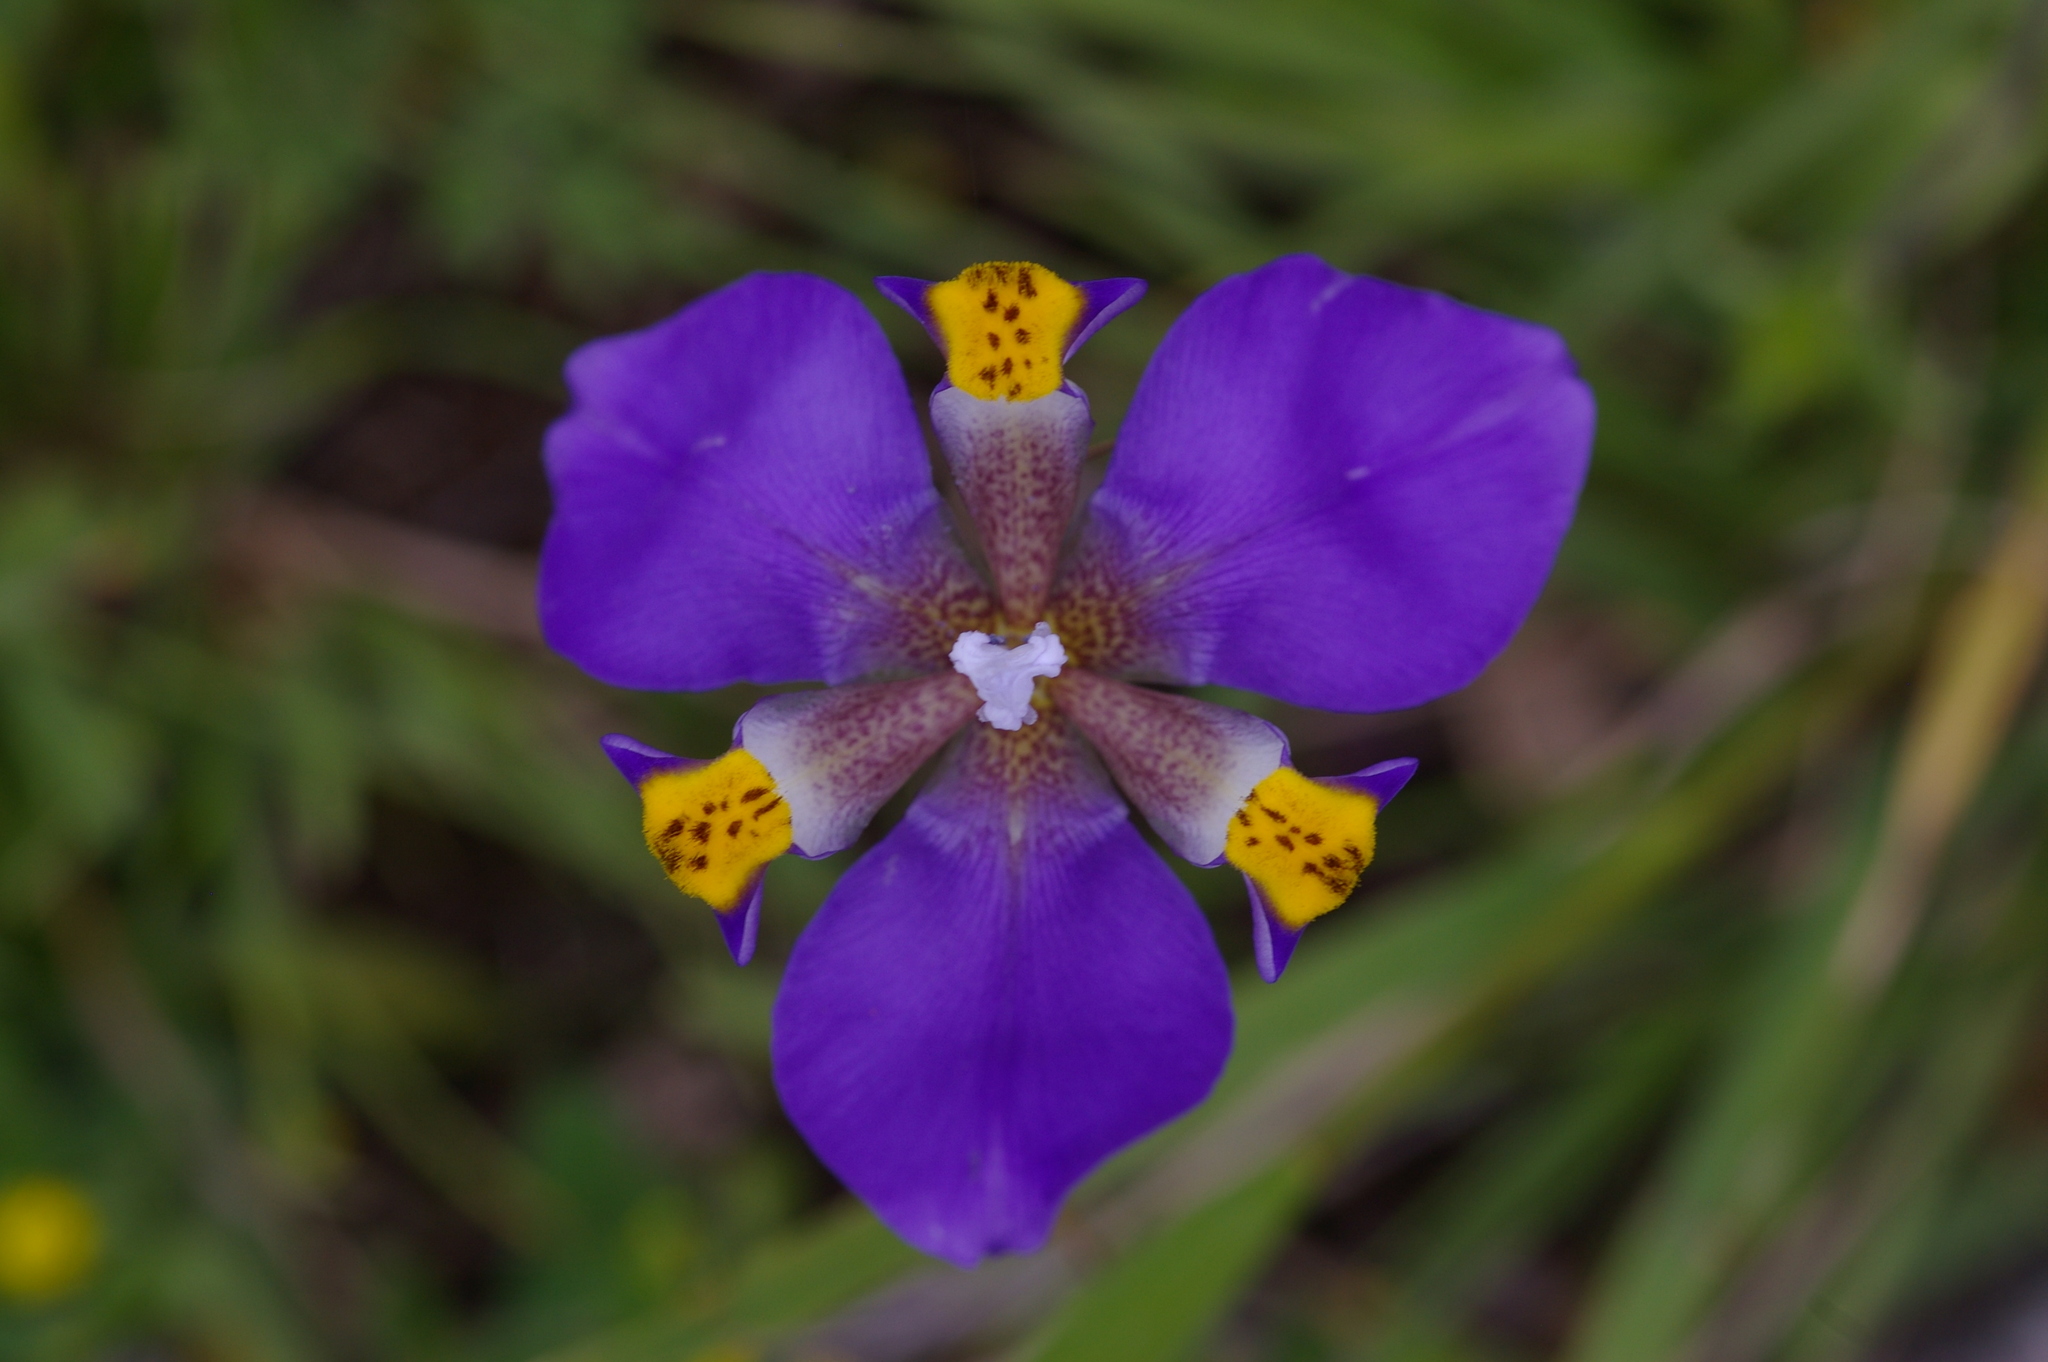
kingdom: Plantae
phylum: Tracheophyta
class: Liliopsida
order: Asparagales
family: Iridaceae
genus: Hesperoxiphion
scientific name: Hesperoxiphion herrerae
